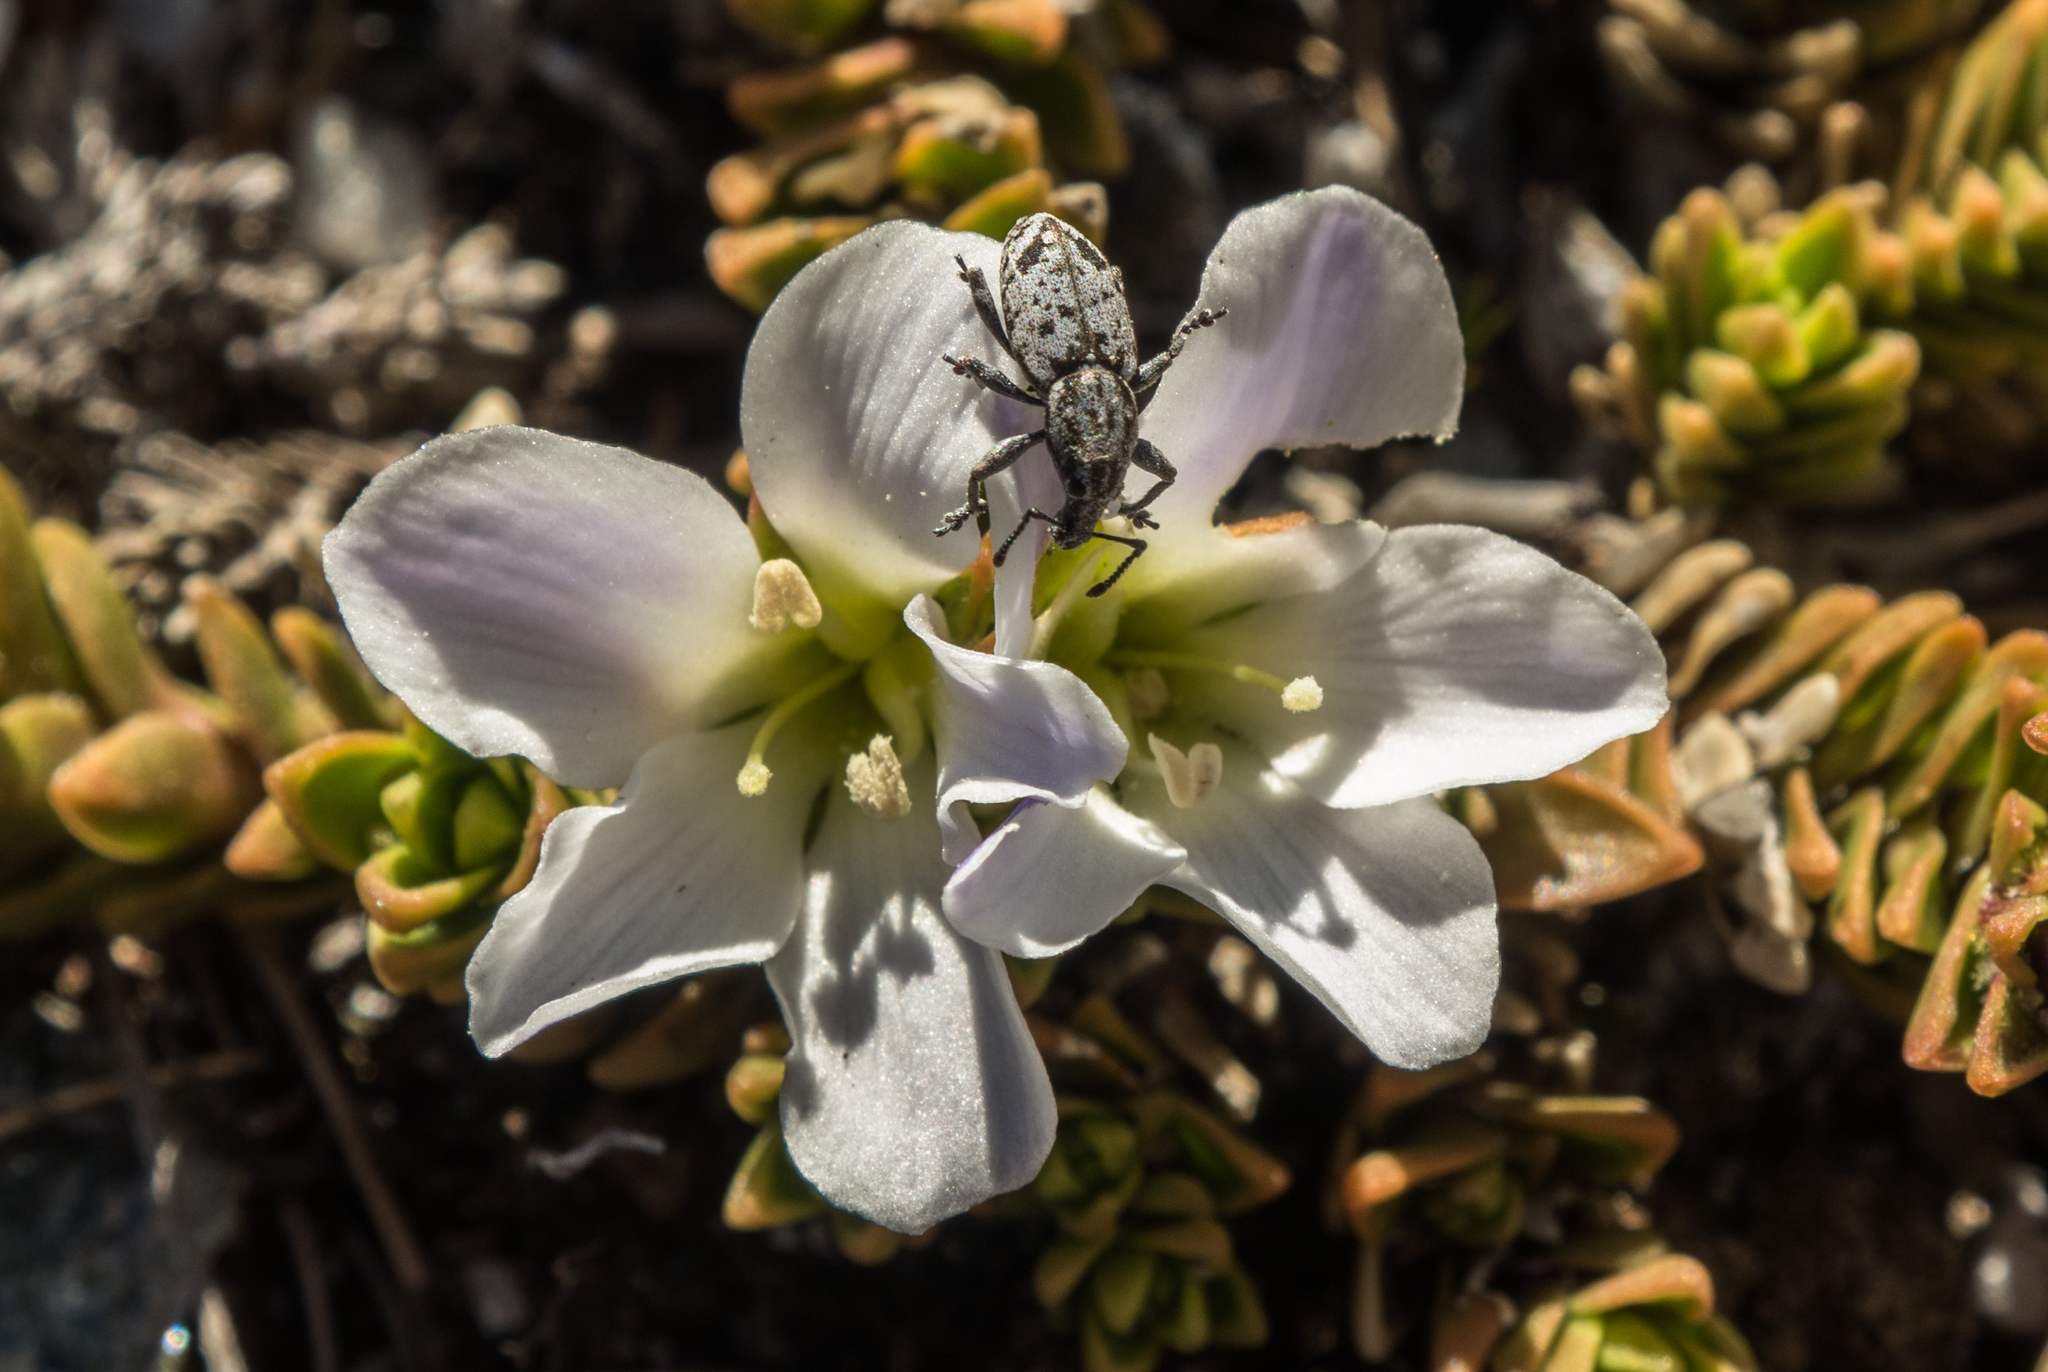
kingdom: Plantae
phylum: Tracheophyta
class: Magnoliopsida
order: Lamiales
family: Plantaginaceae
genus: Veronica
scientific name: Veronica densifolia
